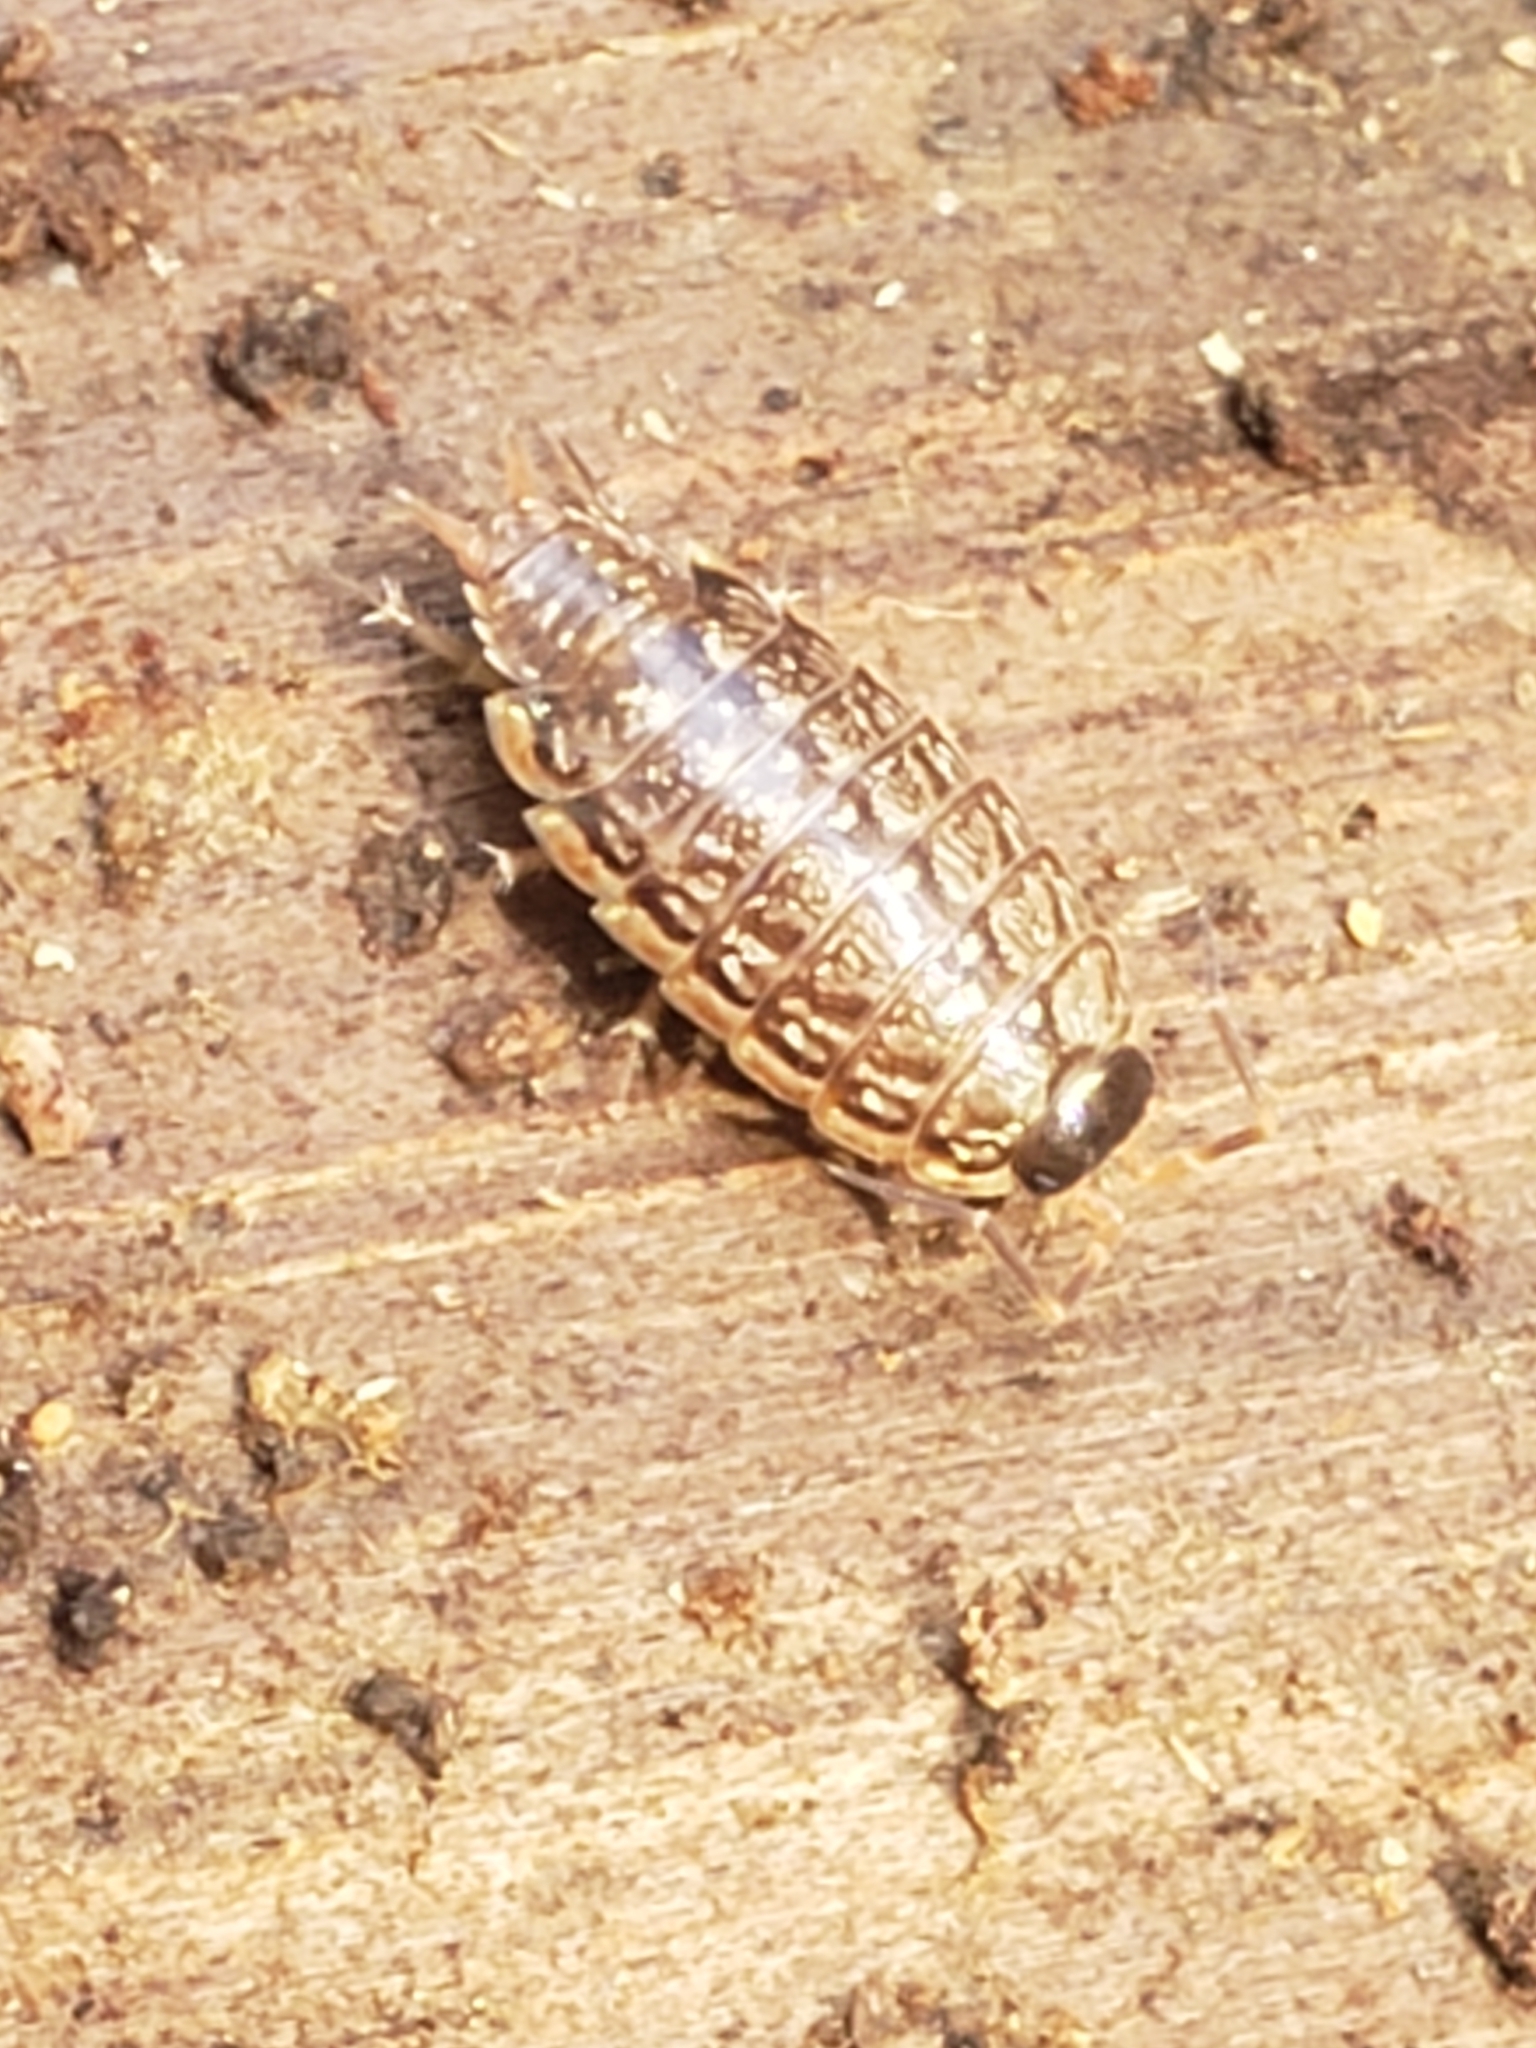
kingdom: Animalia
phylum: Arthropoda
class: Malacostraca
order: Isopoda
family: Philosciidae
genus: Philoscia
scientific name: Philoscia muscorum
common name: Common striped woodlouse
